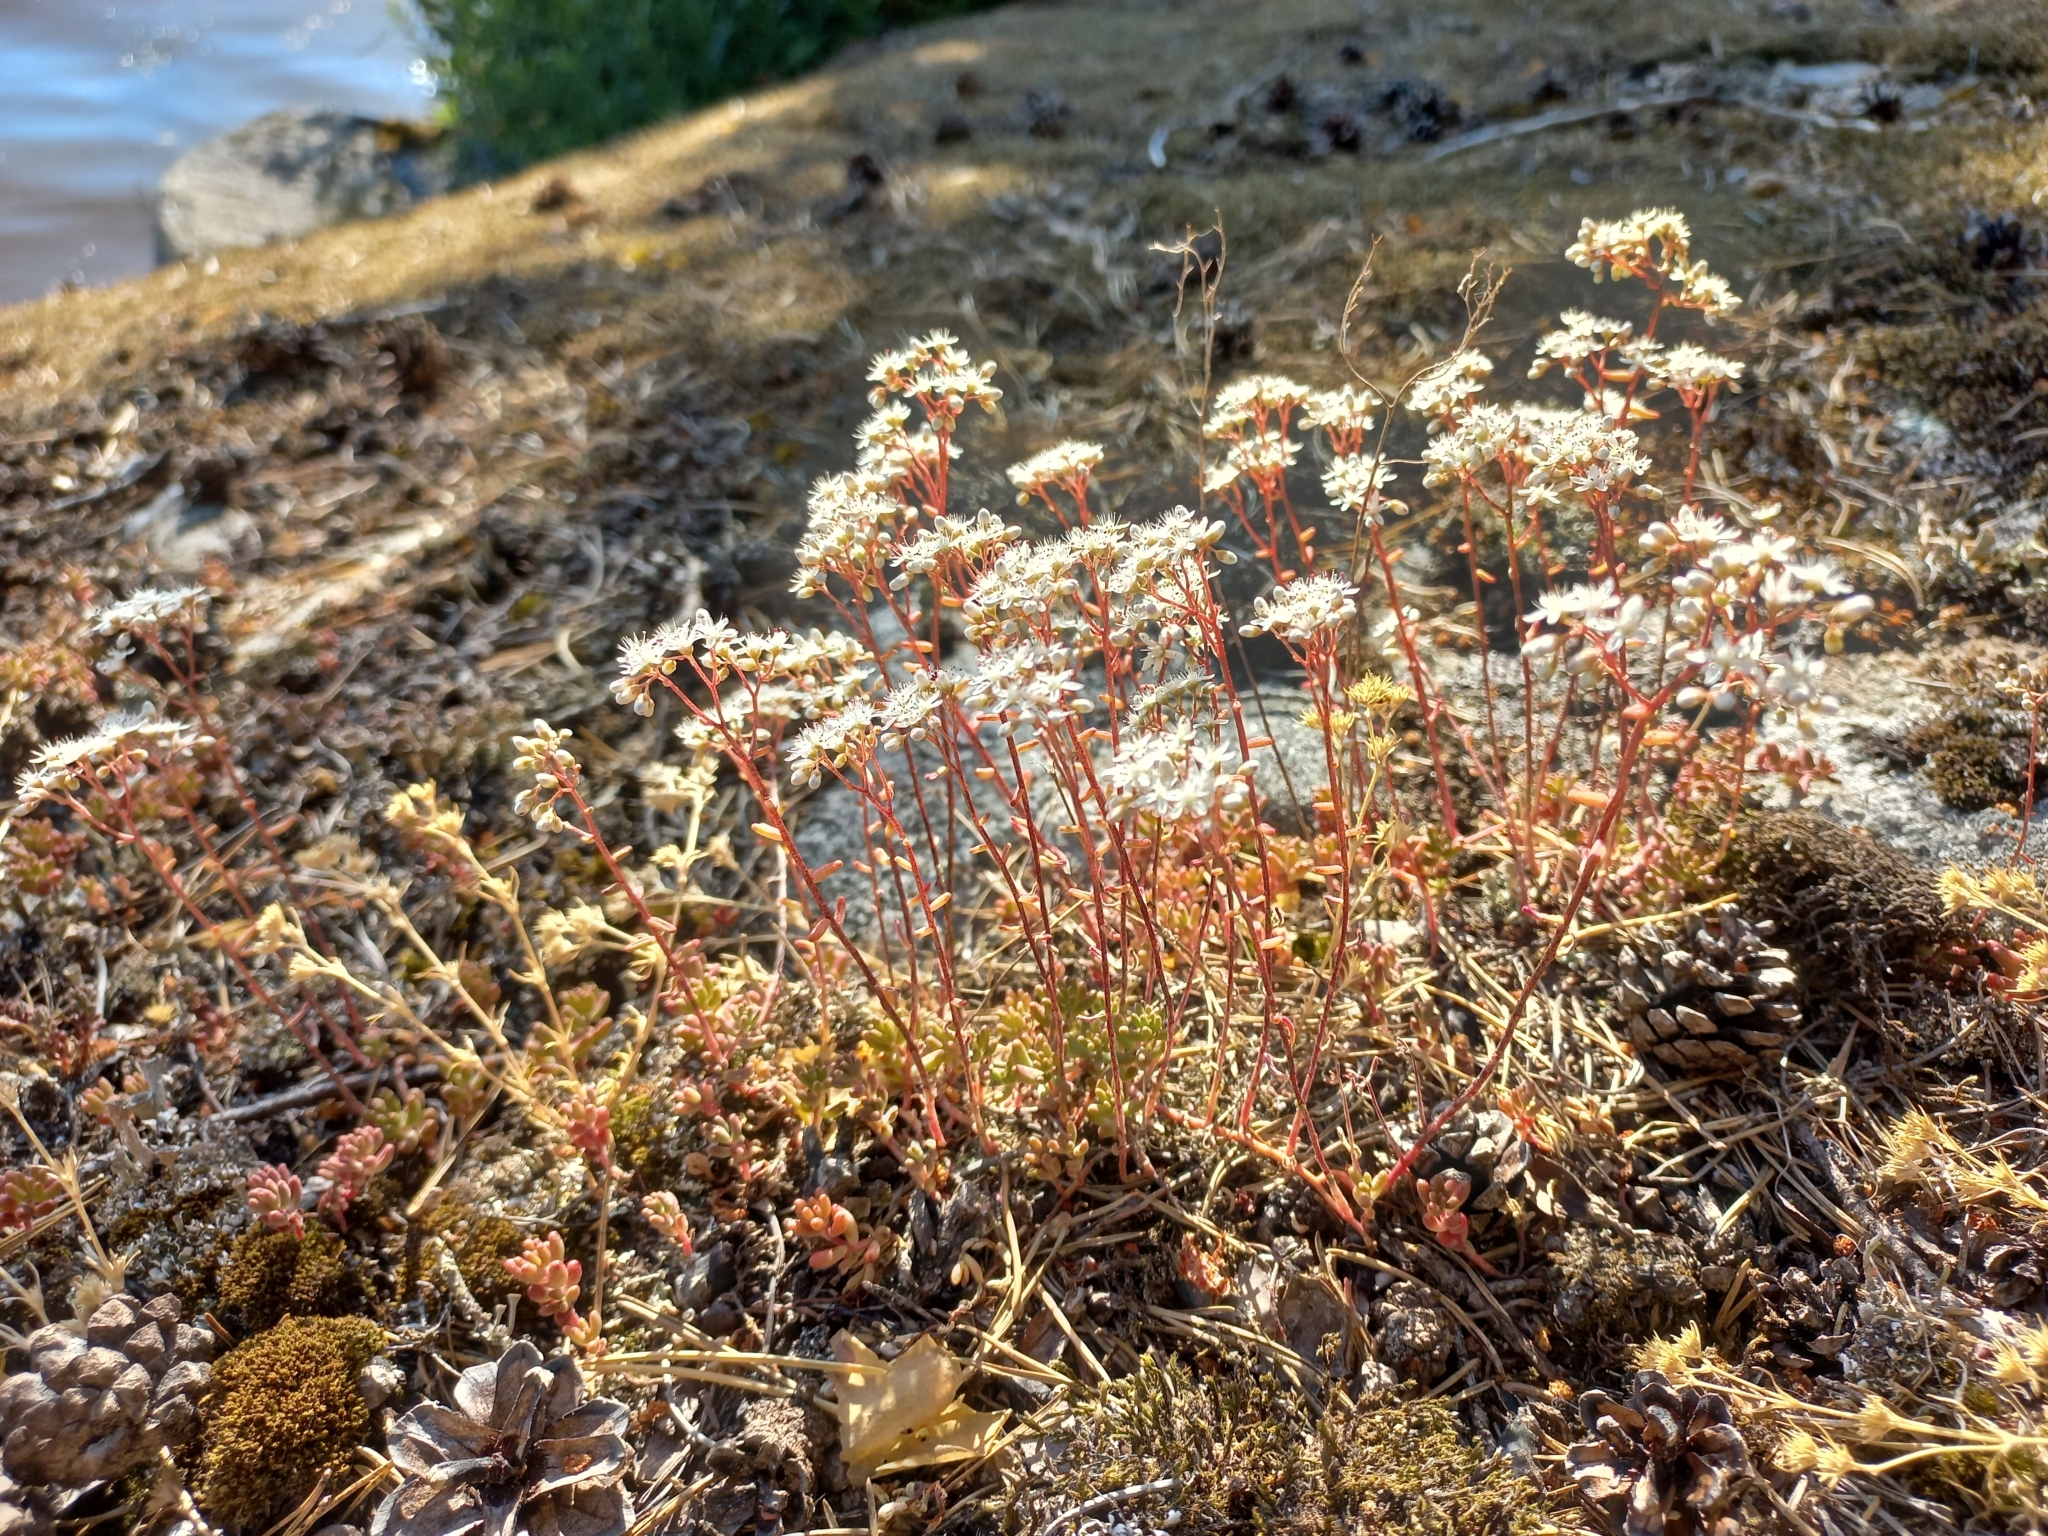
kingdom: Plantae
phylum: Tracheophyta
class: Magnoliopsida
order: Saxifragales
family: Crassulaceae
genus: Sedum
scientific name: Sedum album
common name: White stonecrop
